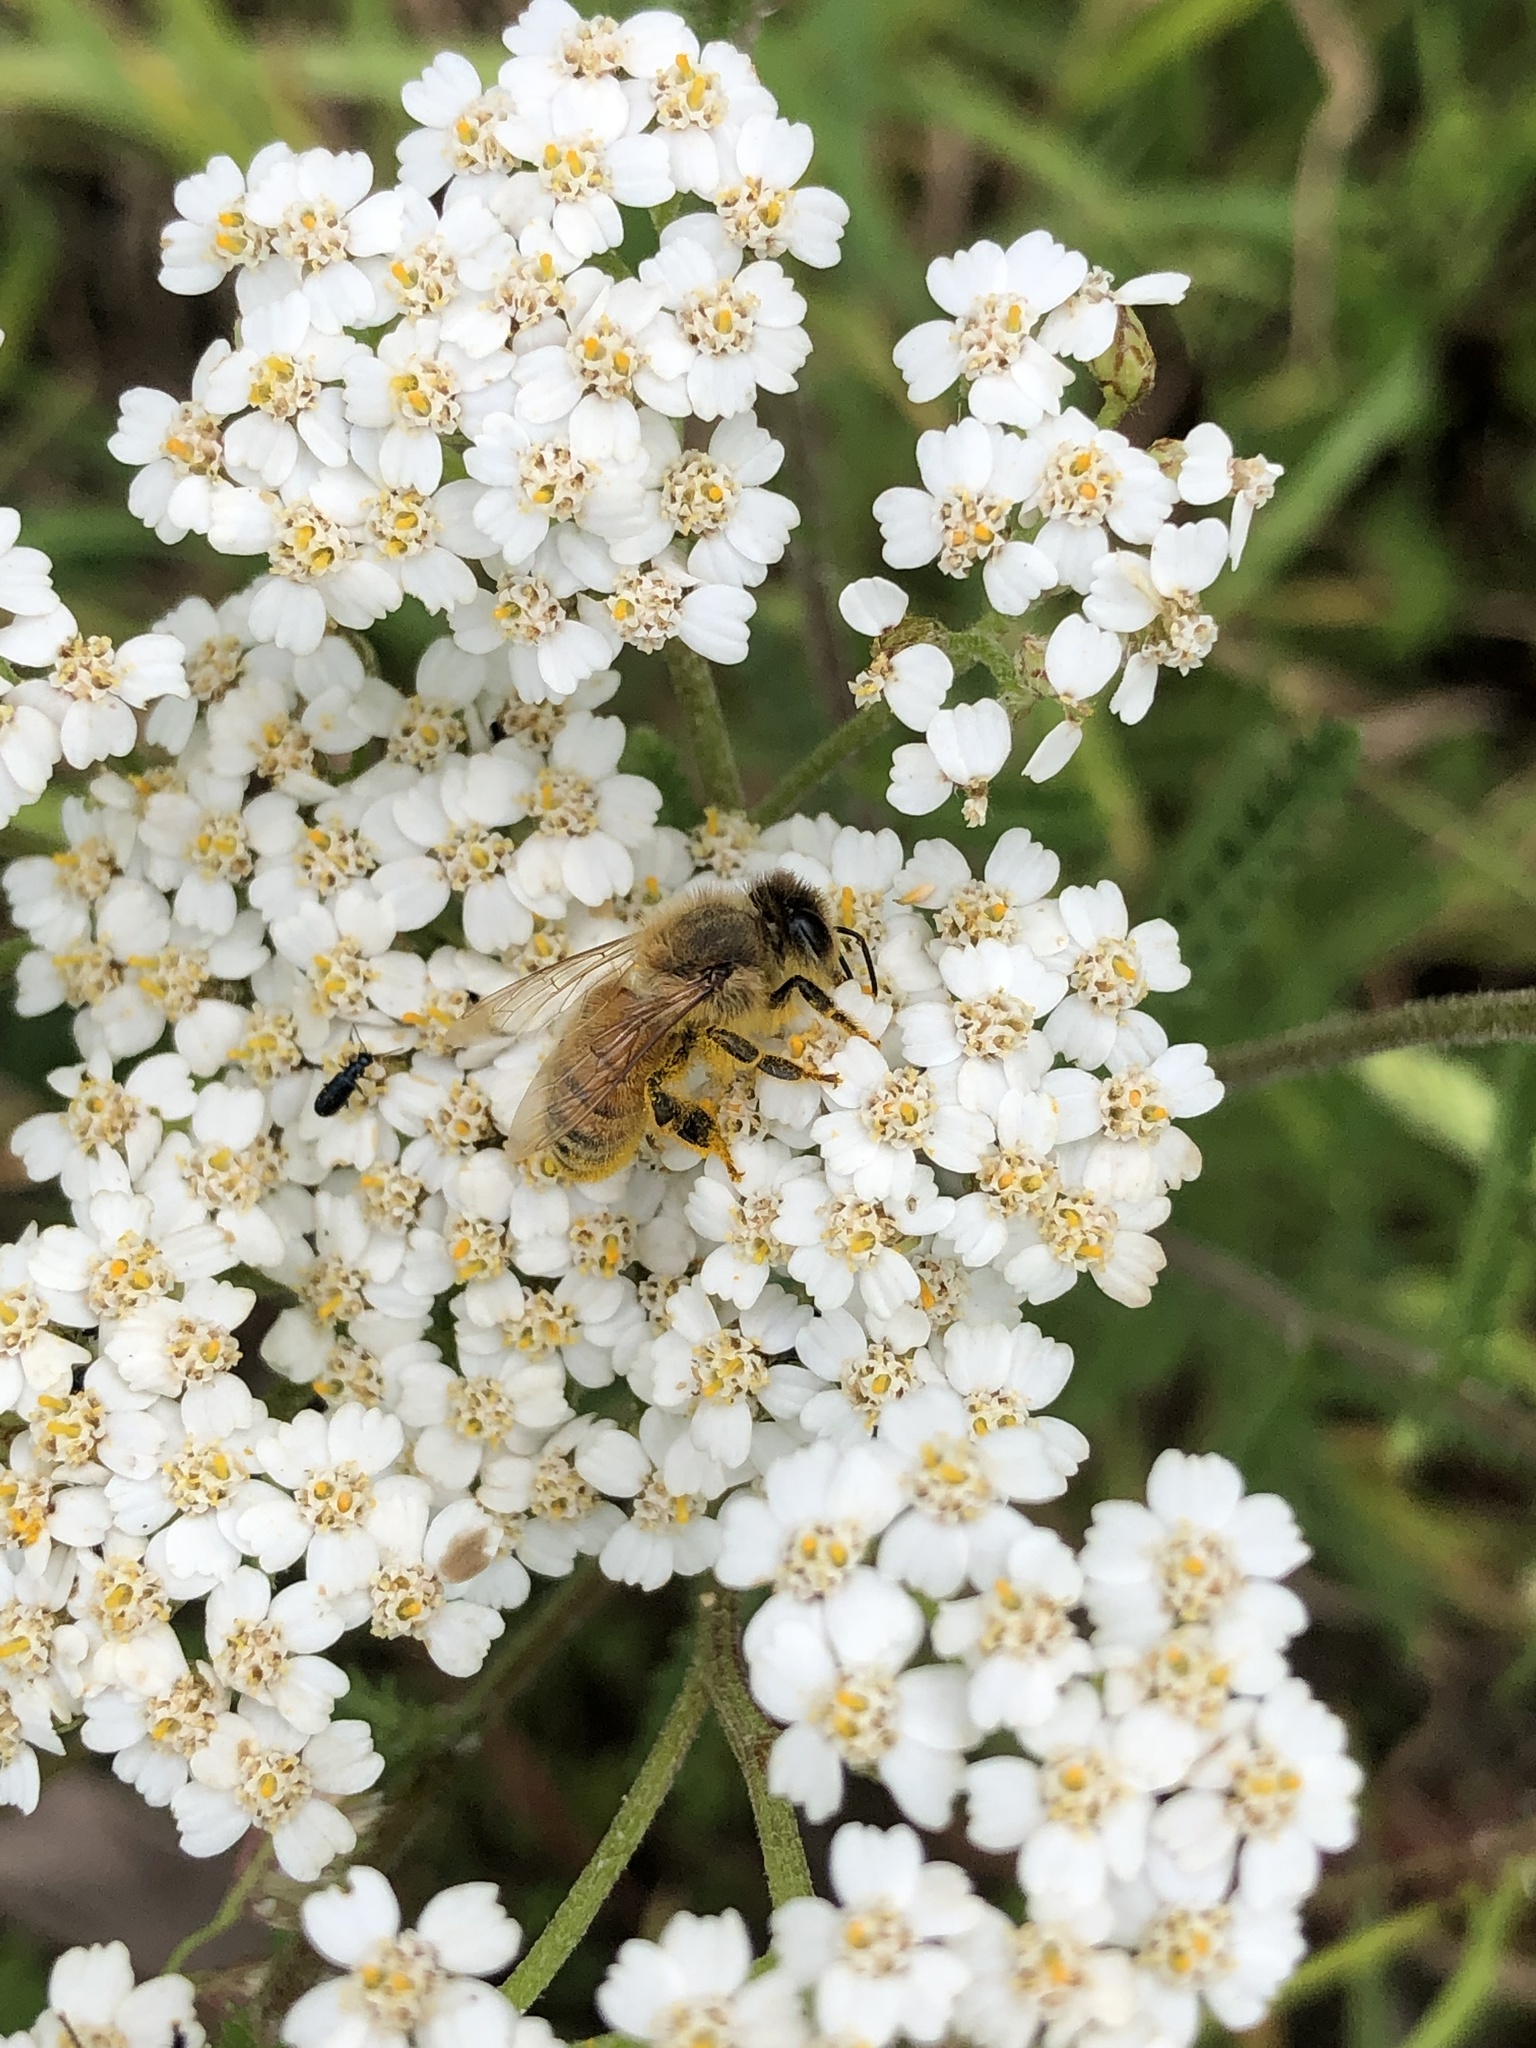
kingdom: Animalia
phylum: Arthropoda
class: Insecta
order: Hymenoptera
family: Apidae
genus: Apis
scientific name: Apis mellifera
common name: Honey bee
